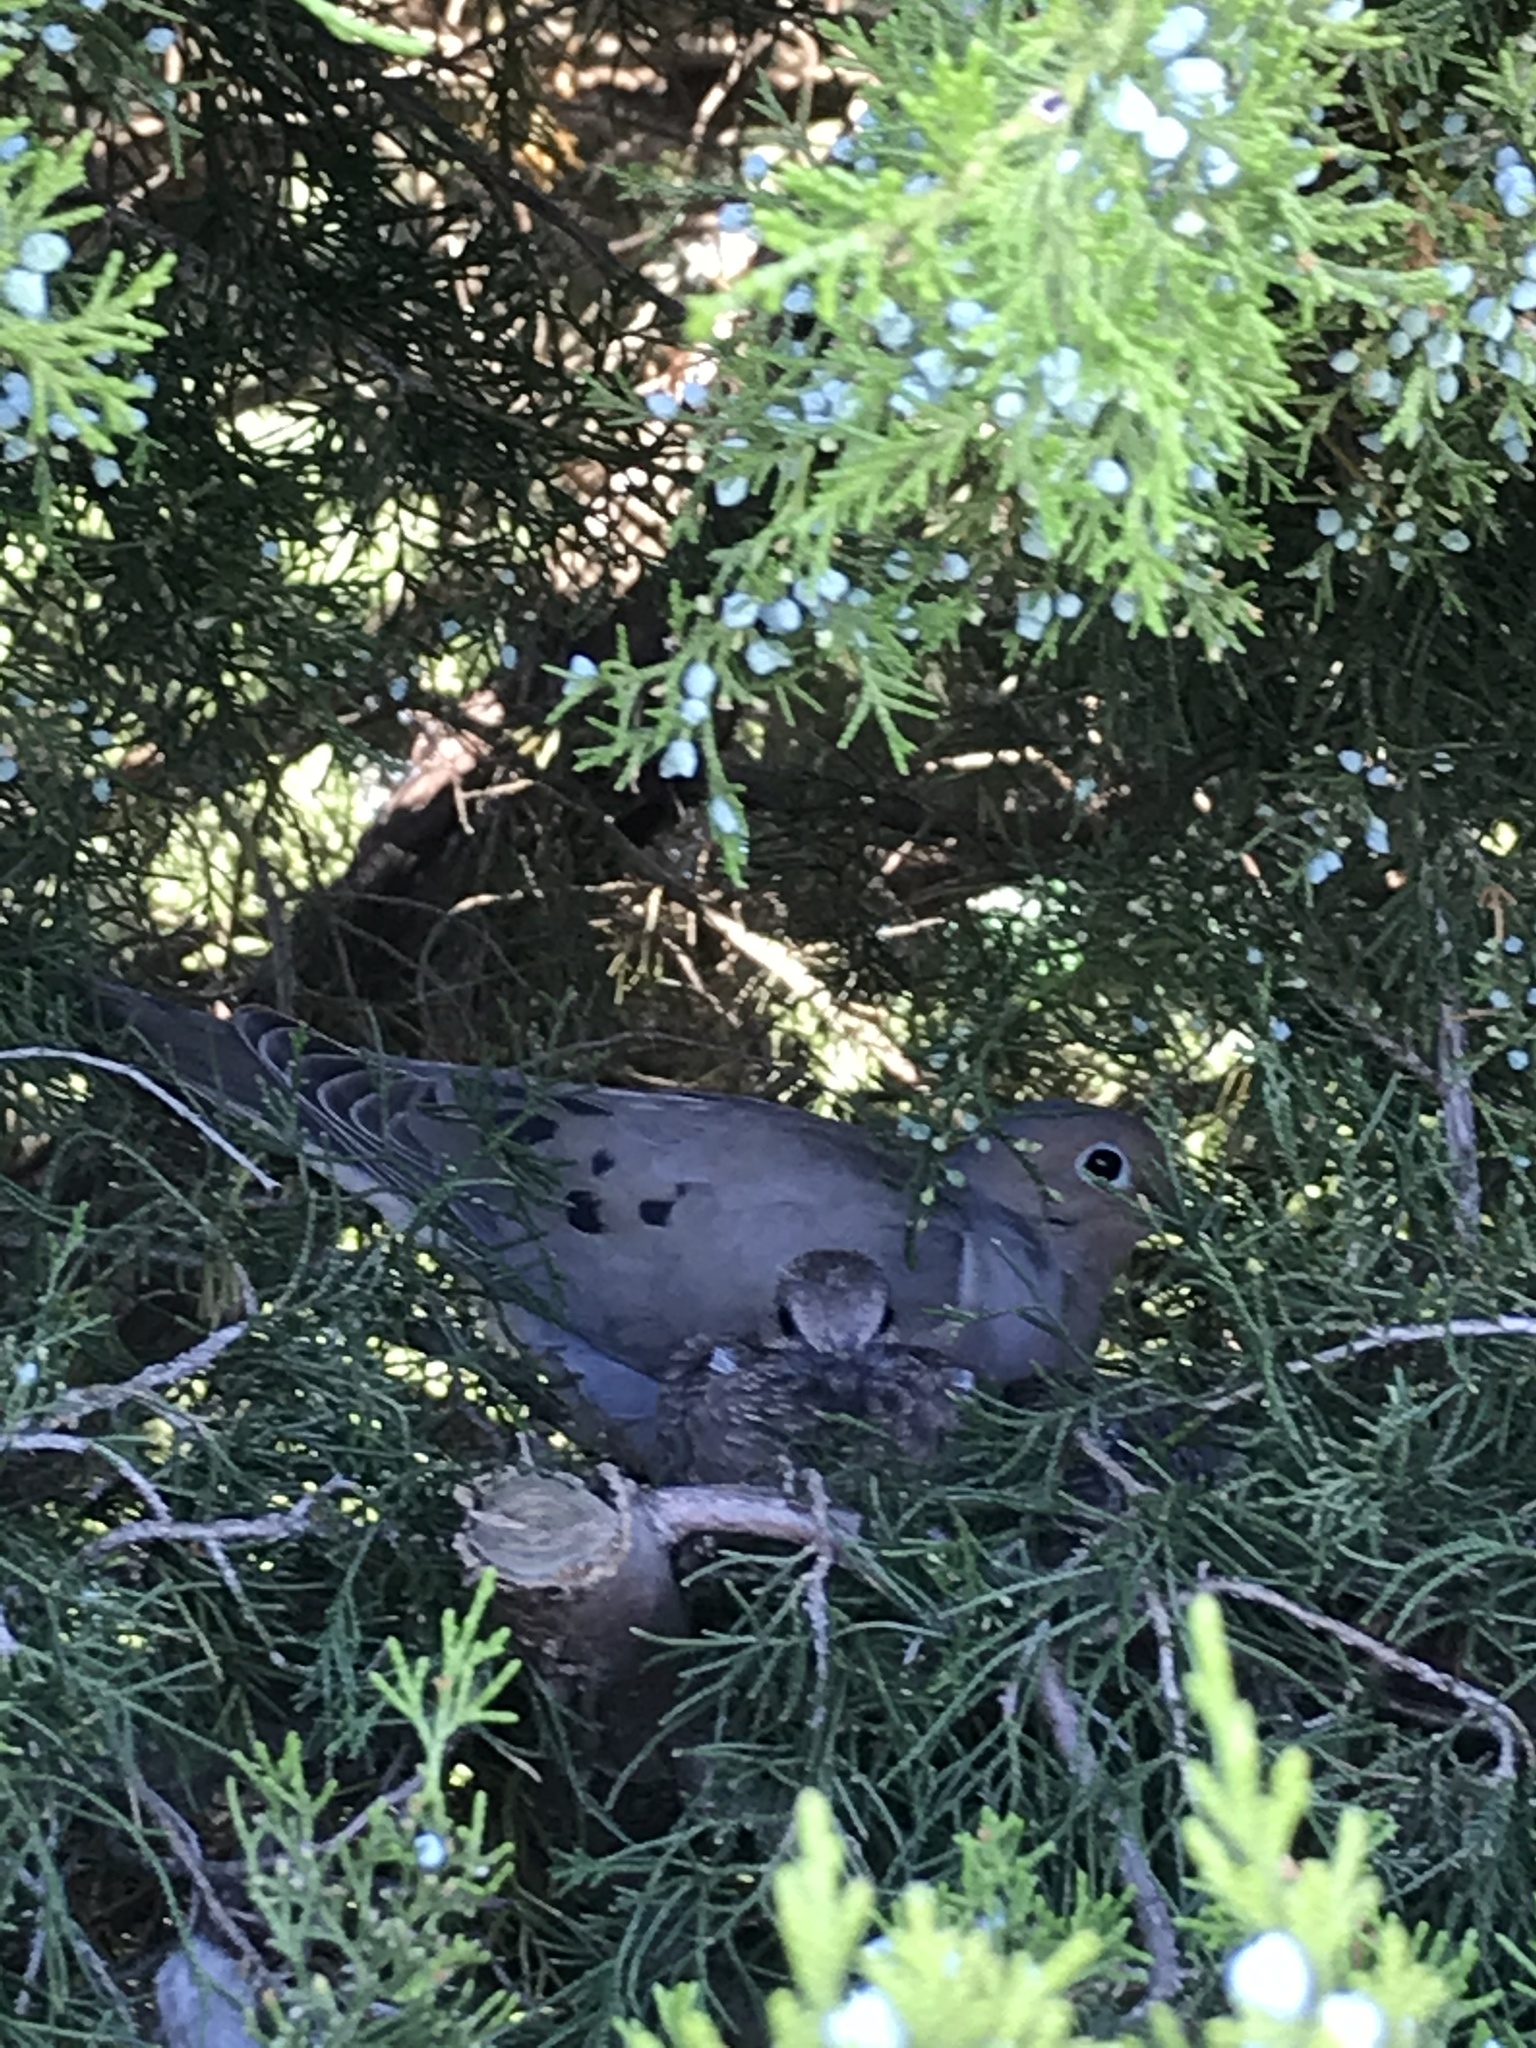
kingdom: Animalia
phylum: Chordata
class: Aves
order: Columbiformes
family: Columbidae
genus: Zenaida
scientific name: Zenaida macroura
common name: Mourning dove
